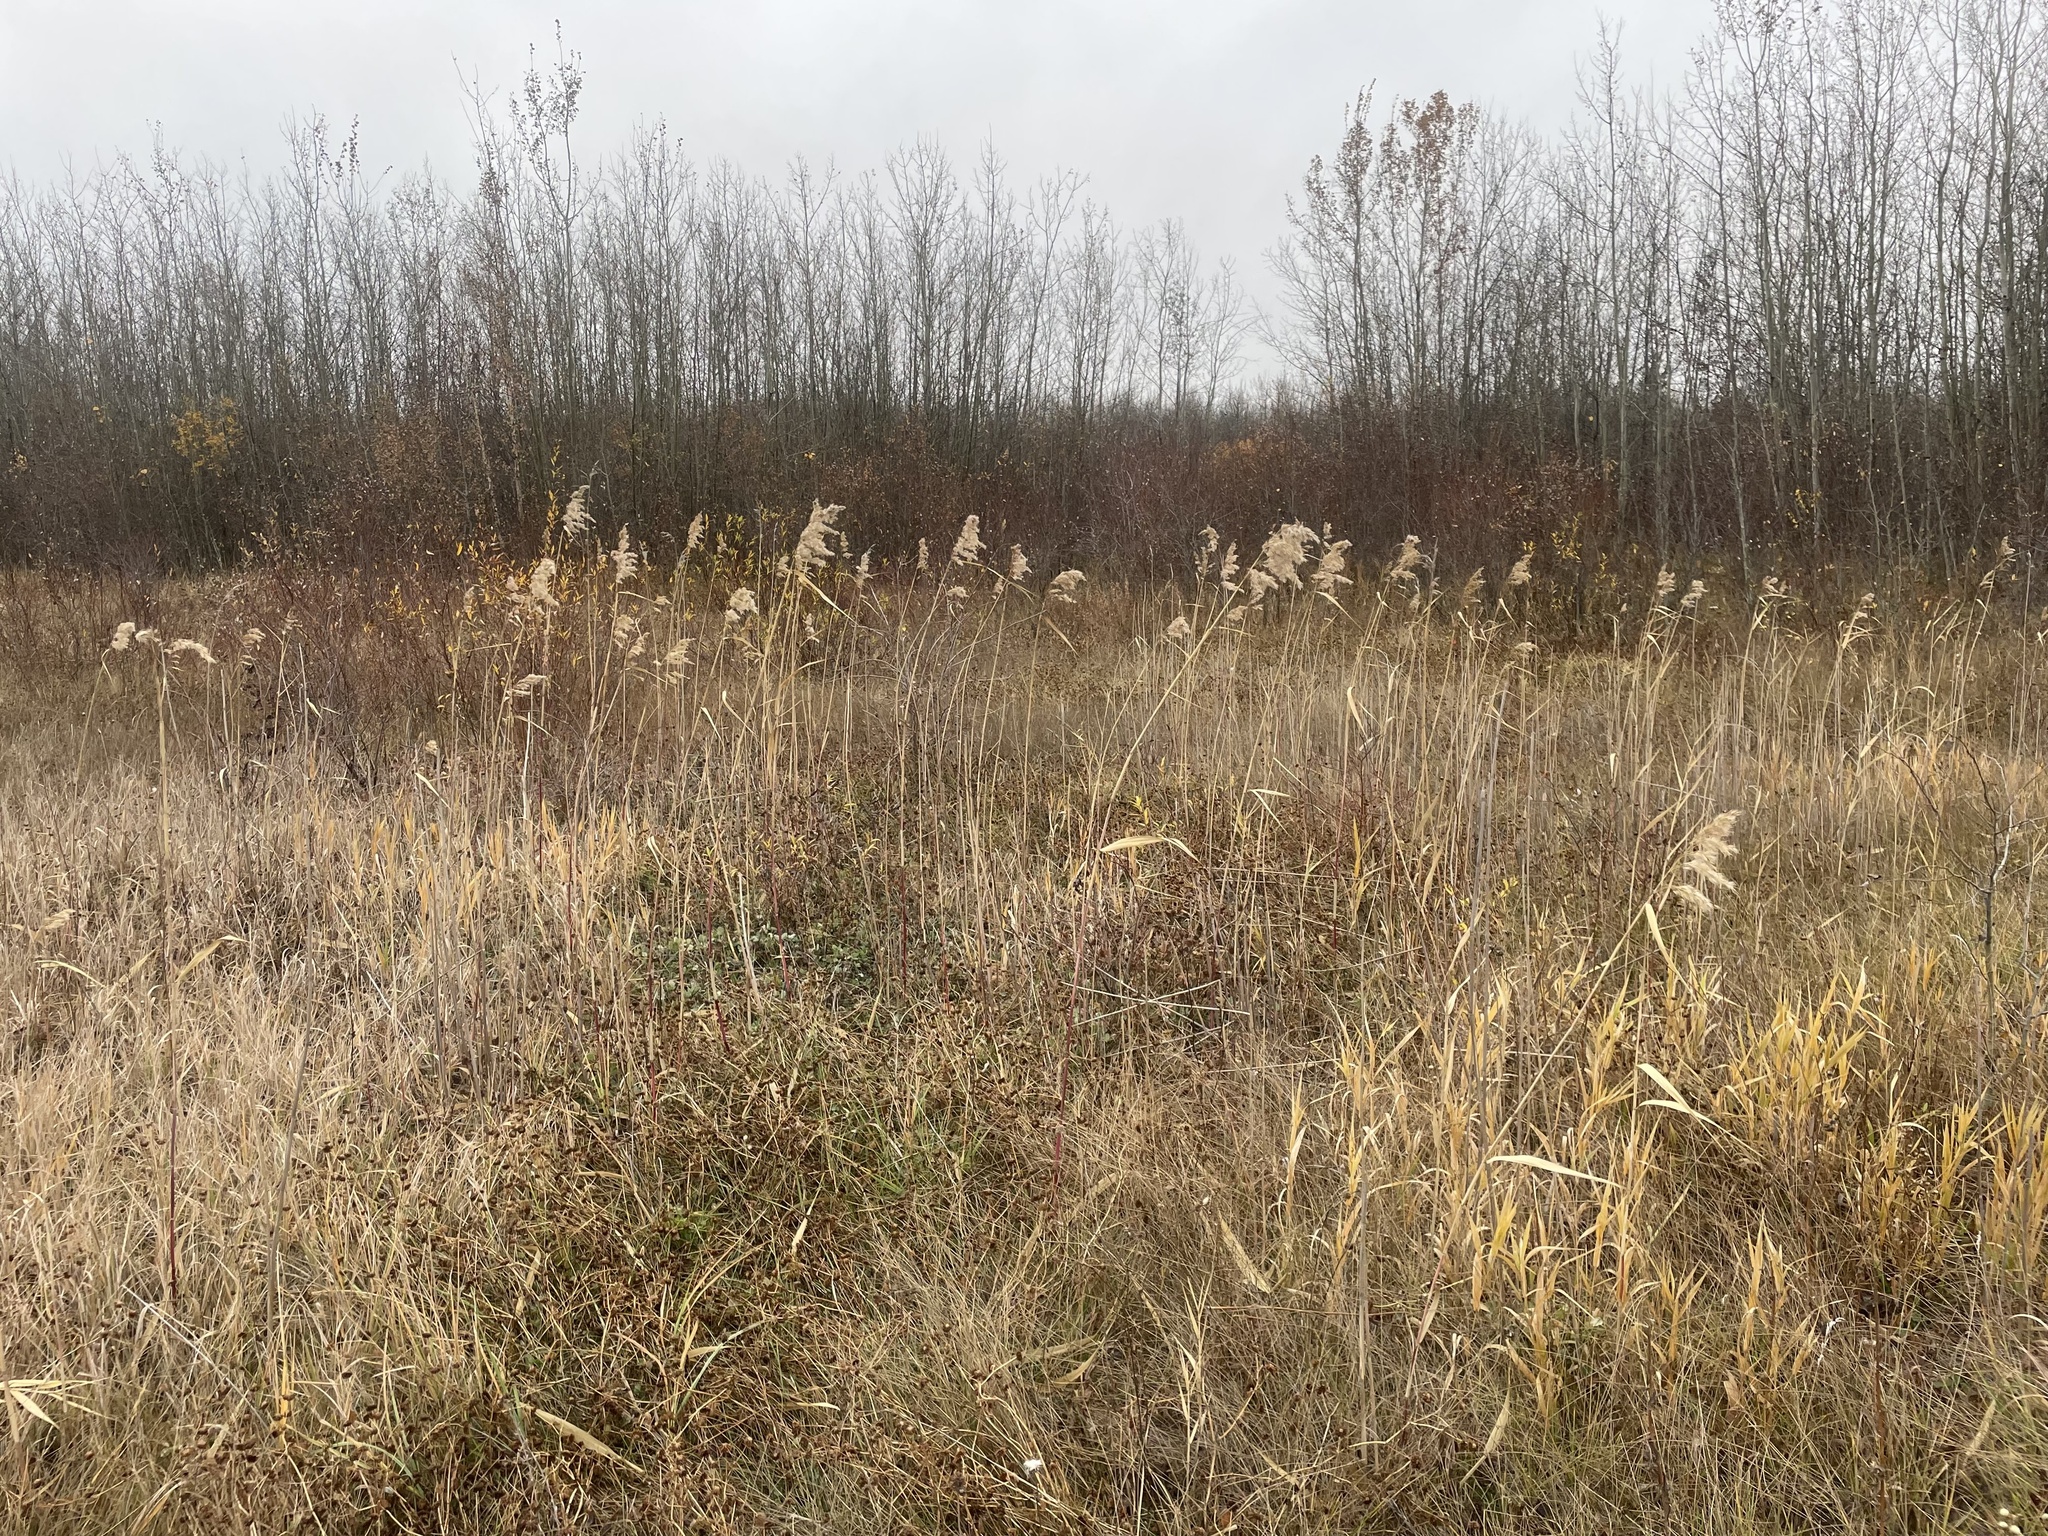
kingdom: Plantae
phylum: Tracheophyta
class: Liliopsida
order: Poales
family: Poaceae
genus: Phragmites
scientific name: Phragmites australis
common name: Common reed
